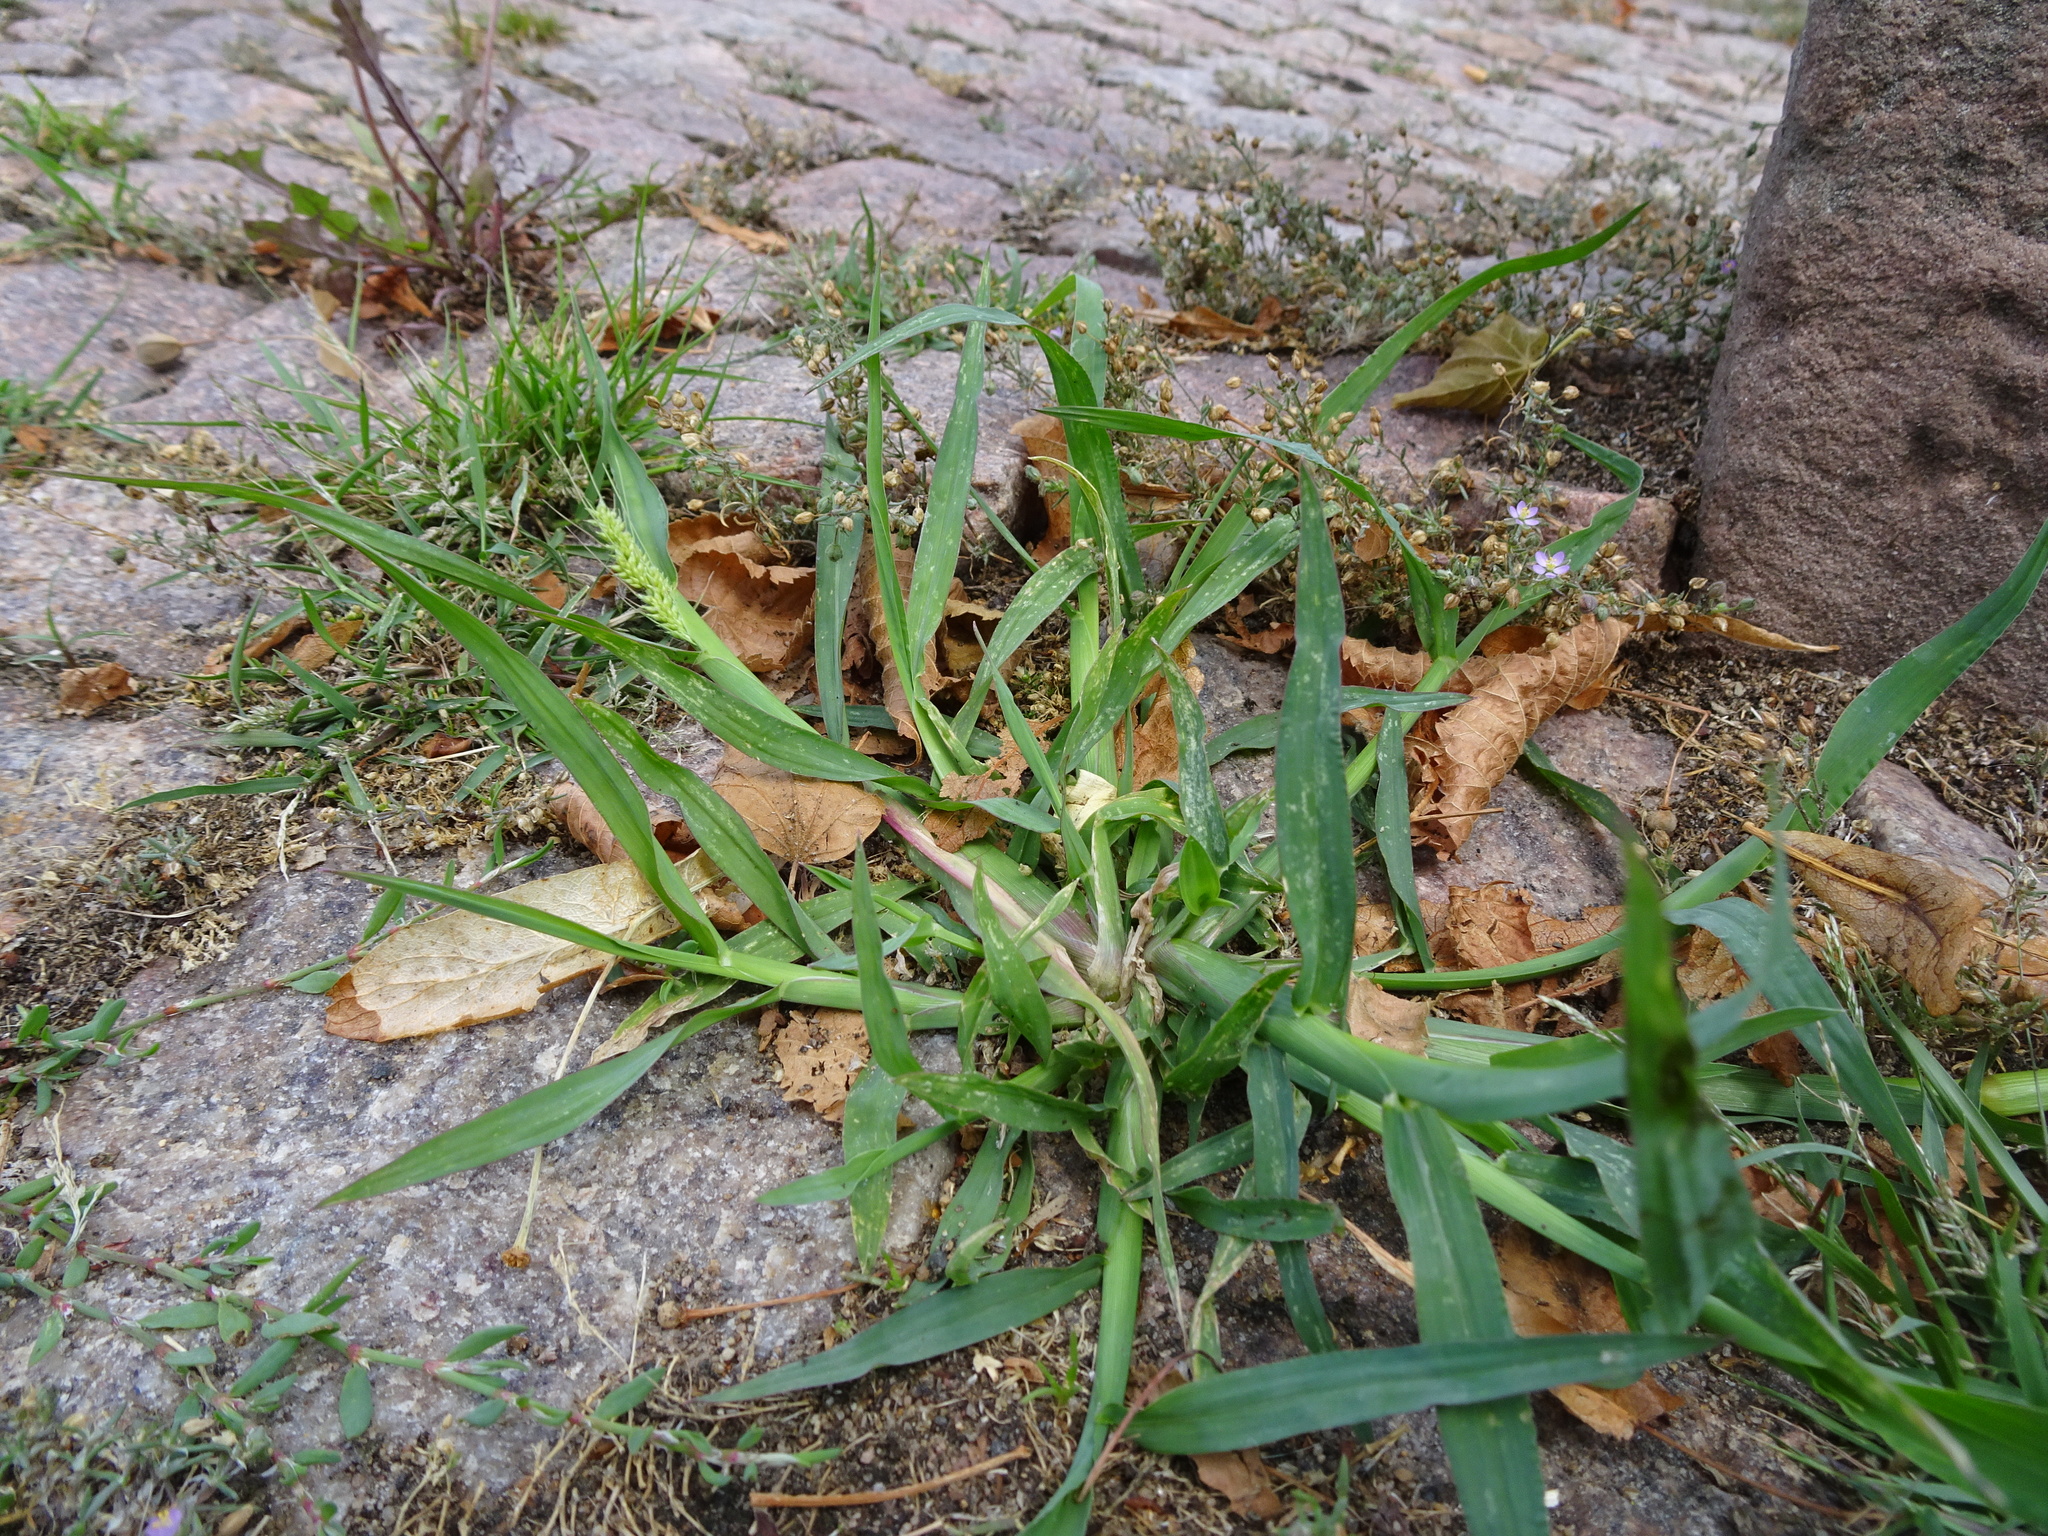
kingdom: Plantae
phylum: Tracheophyta
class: Liliopsida
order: Poales
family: Poaceae
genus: Echinochloa
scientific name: Echinochloa crus-galli
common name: Cockspur
